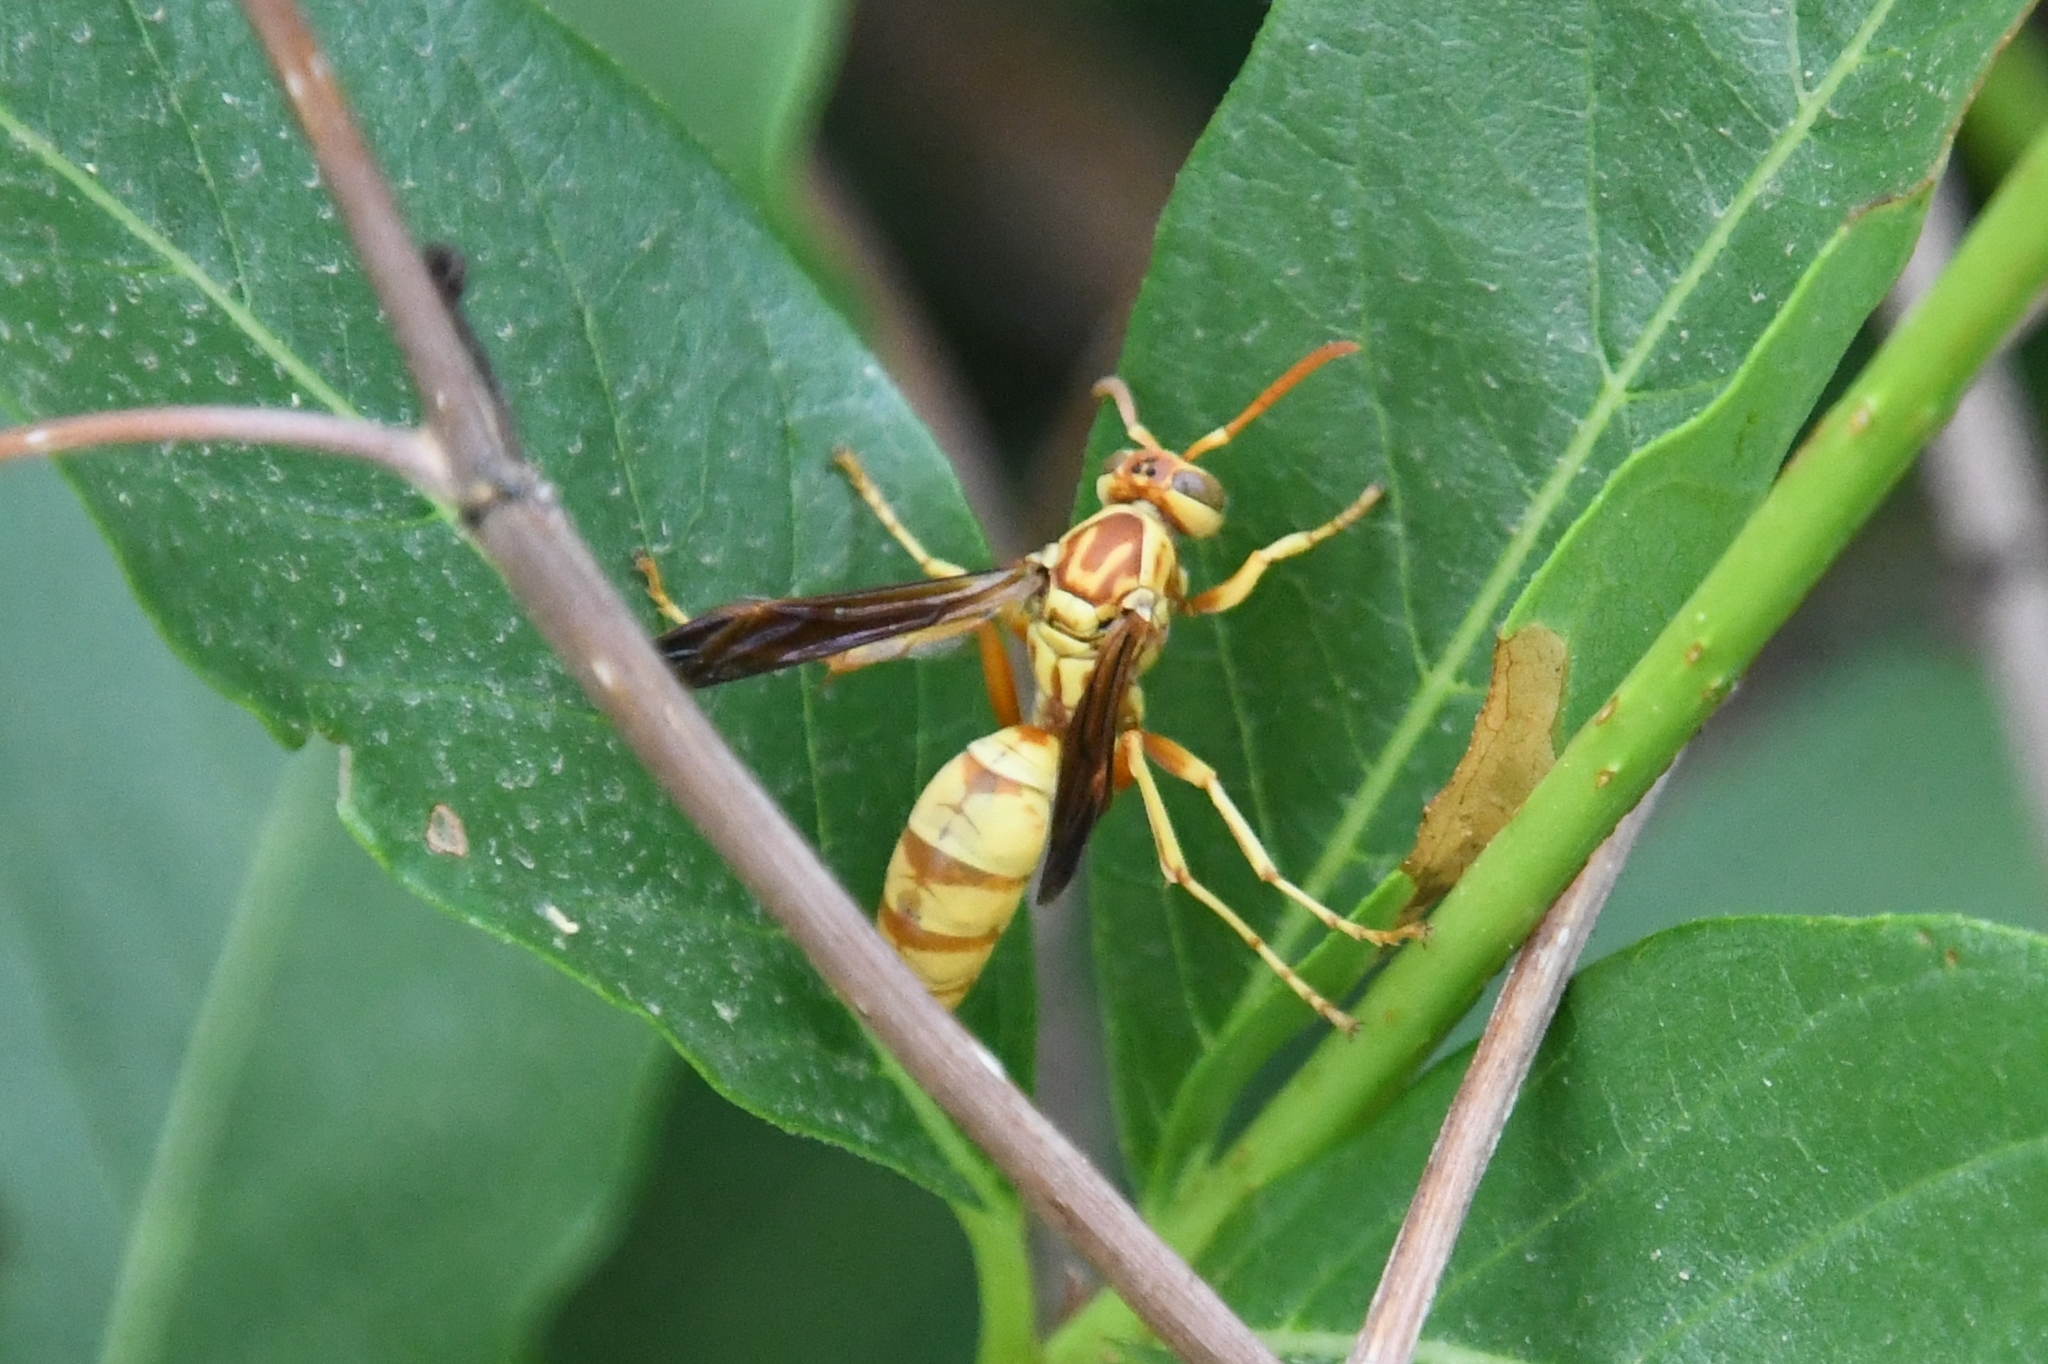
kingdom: Animalia
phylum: Arthropoda
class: Insecta
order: Hymenoptera
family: Eumenidae
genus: Polistes
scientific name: Polistes aurifer
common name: Paper wasp
